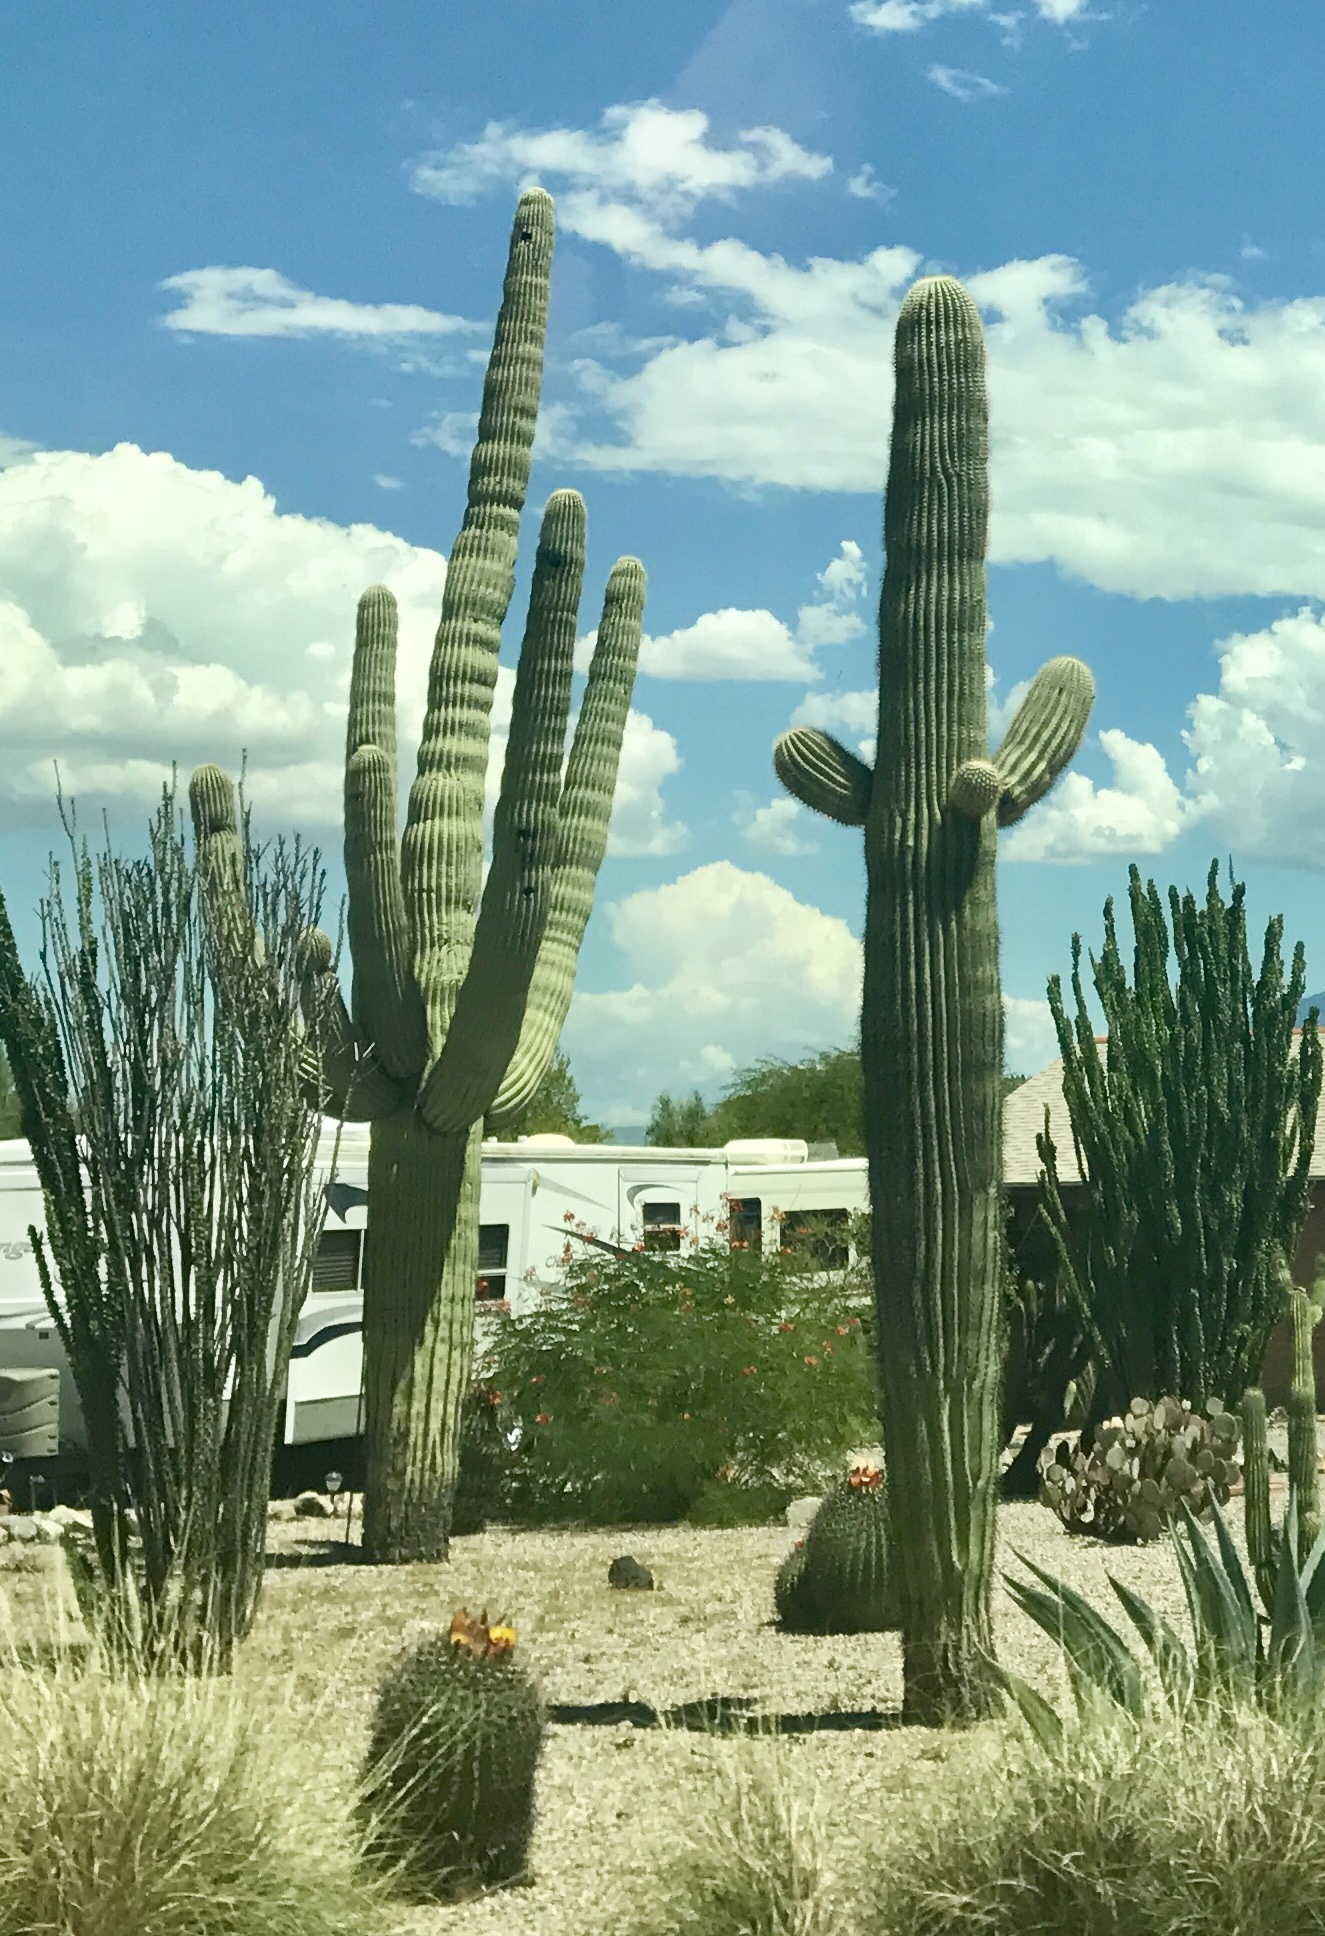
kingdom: Plantae
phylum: Tracheophyta
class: Magnoliopsida
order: Caryophyllales
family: Cactaceae
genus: Carnegiea
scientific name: Carnegiea gigantea
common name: Saguaro
